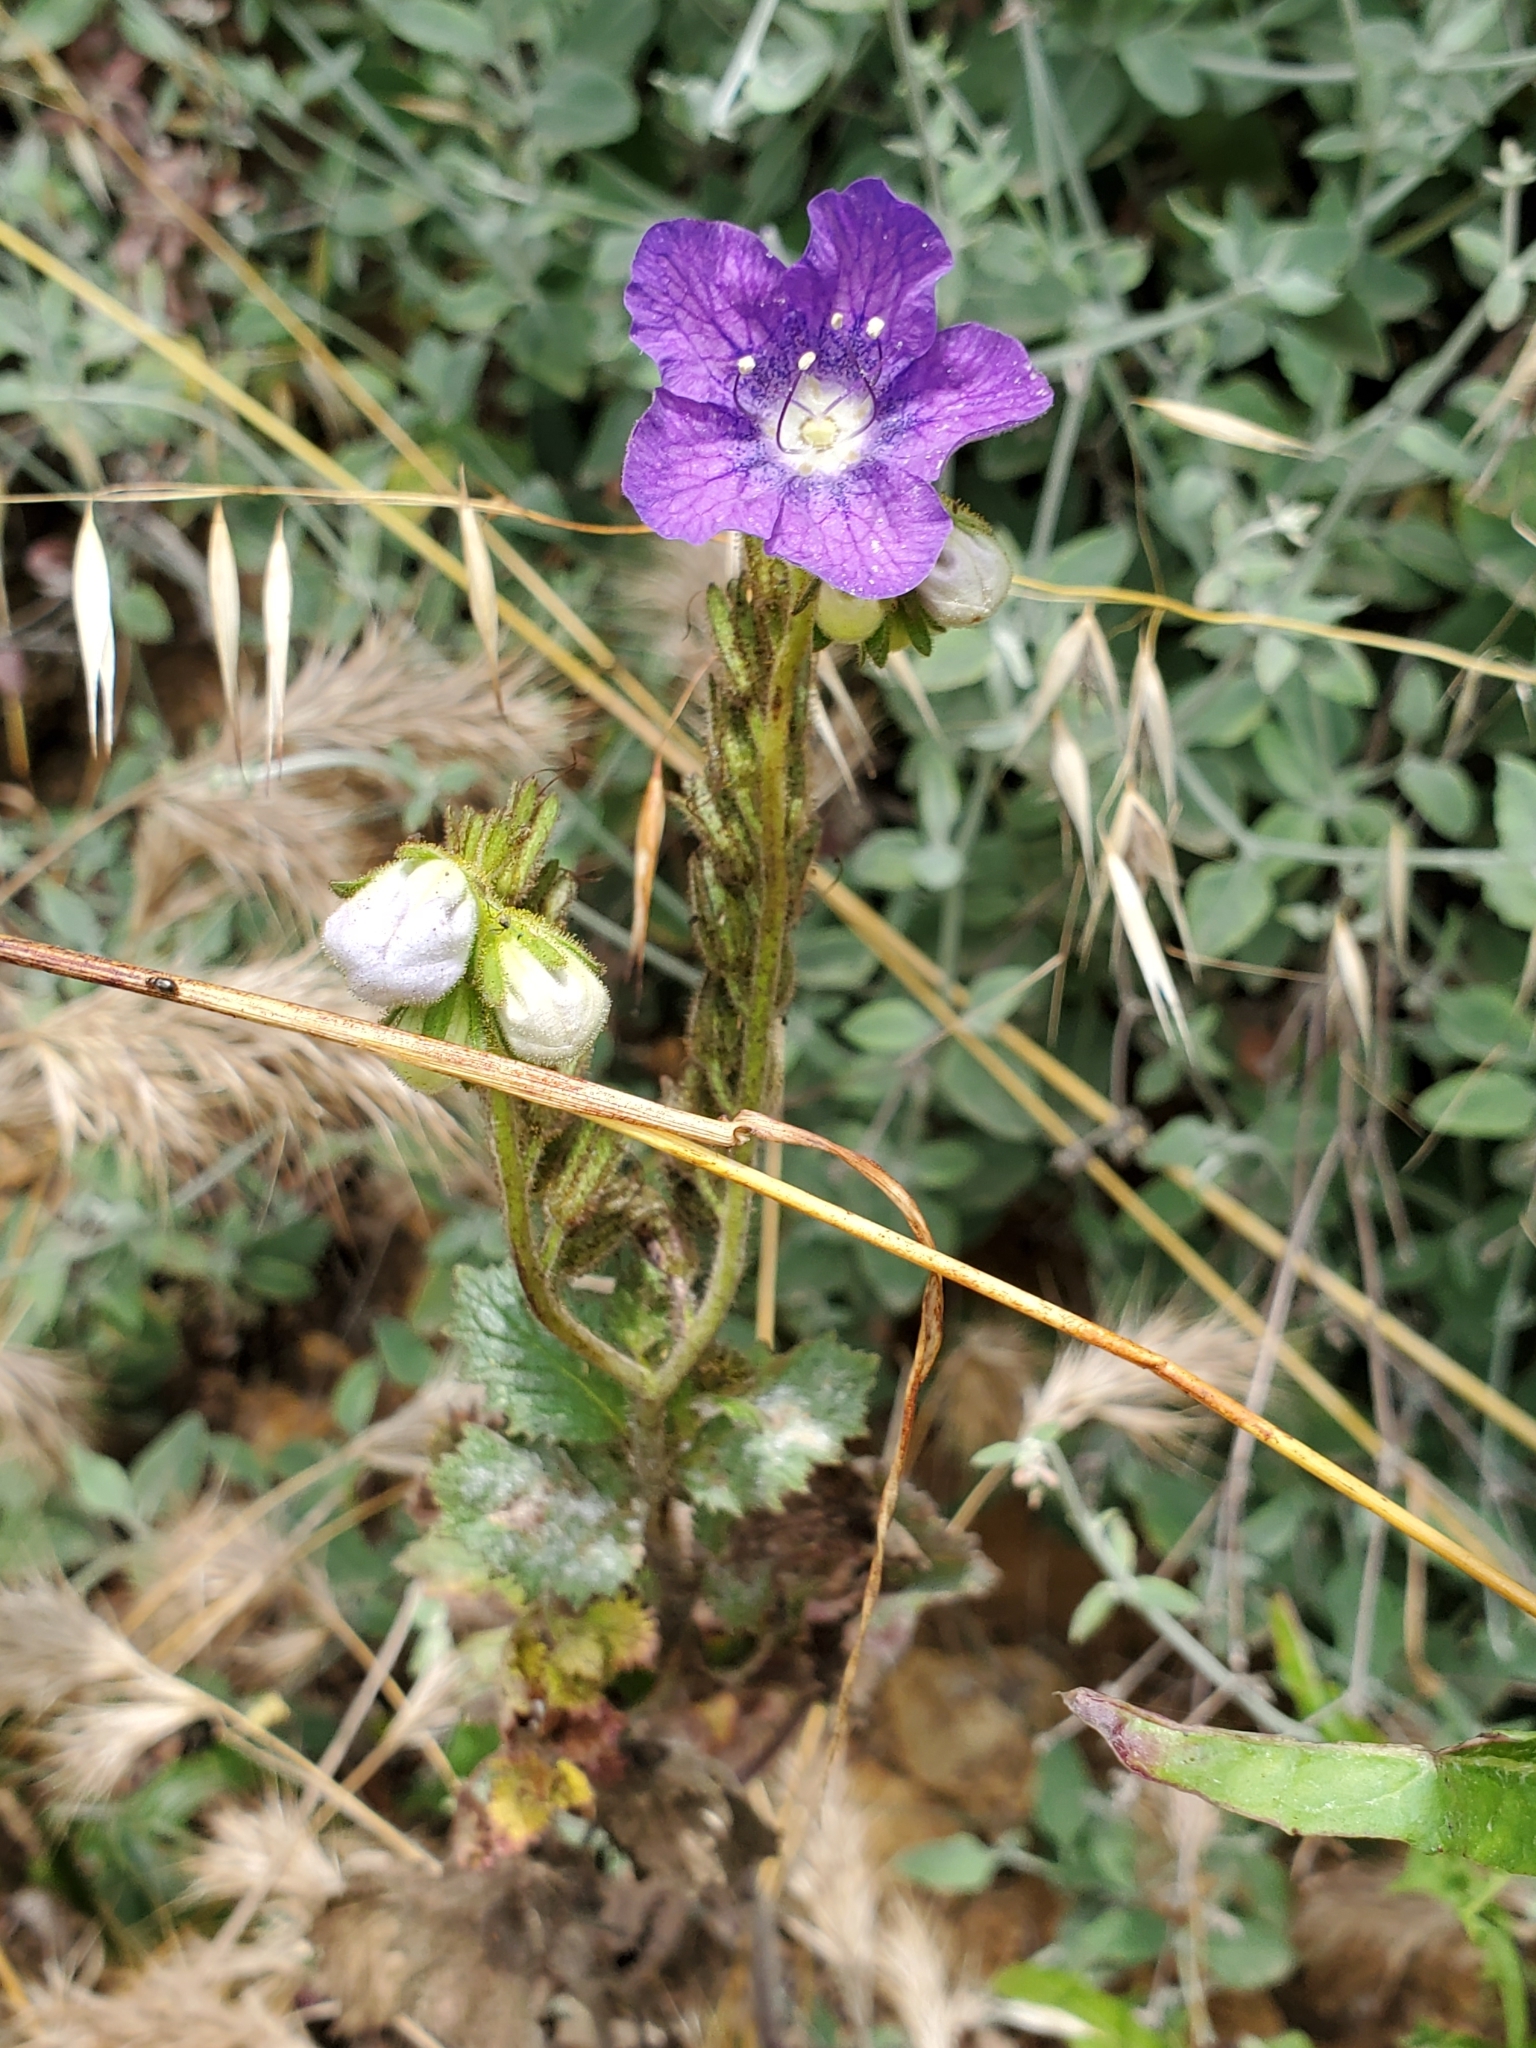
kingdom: Plantae
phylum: Tracheophyta
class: Magnoliopsida
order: Boraginales
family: Hydrophyllaceae
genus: Phacelia
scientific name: Phacelia grandiflora
